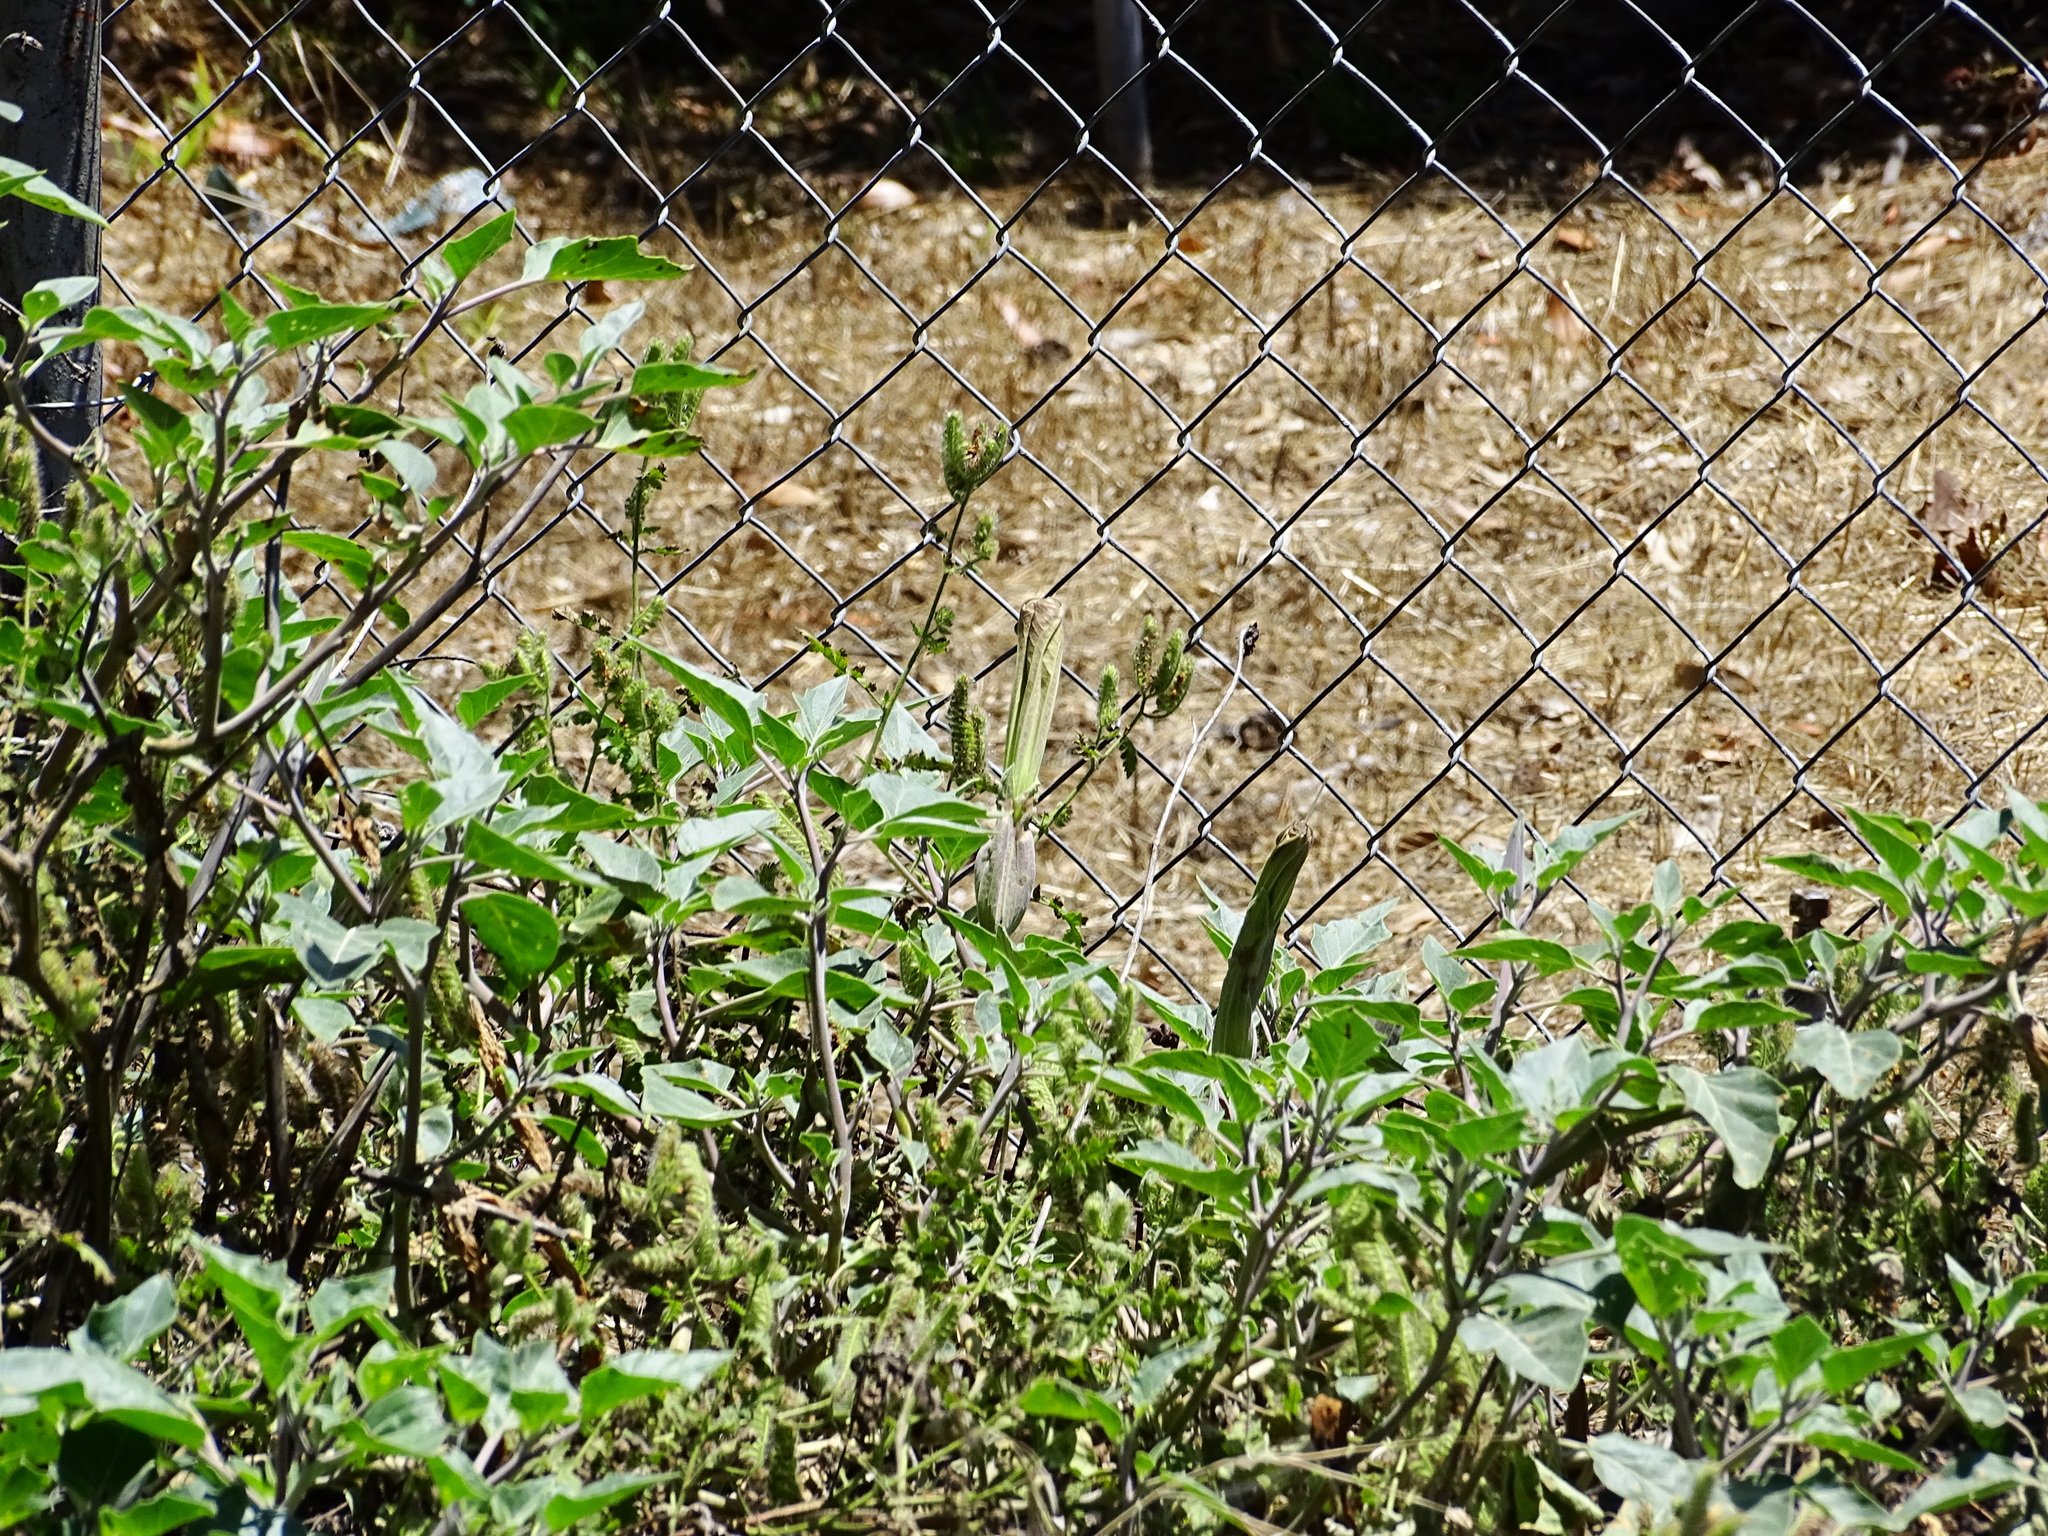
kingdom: Plantae
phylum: Tracheophyta
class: Magnoliopsida
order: Solanales
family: Solanaceae
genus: Datura
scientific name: Datura wrightii
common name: Sacred thorn-apple
